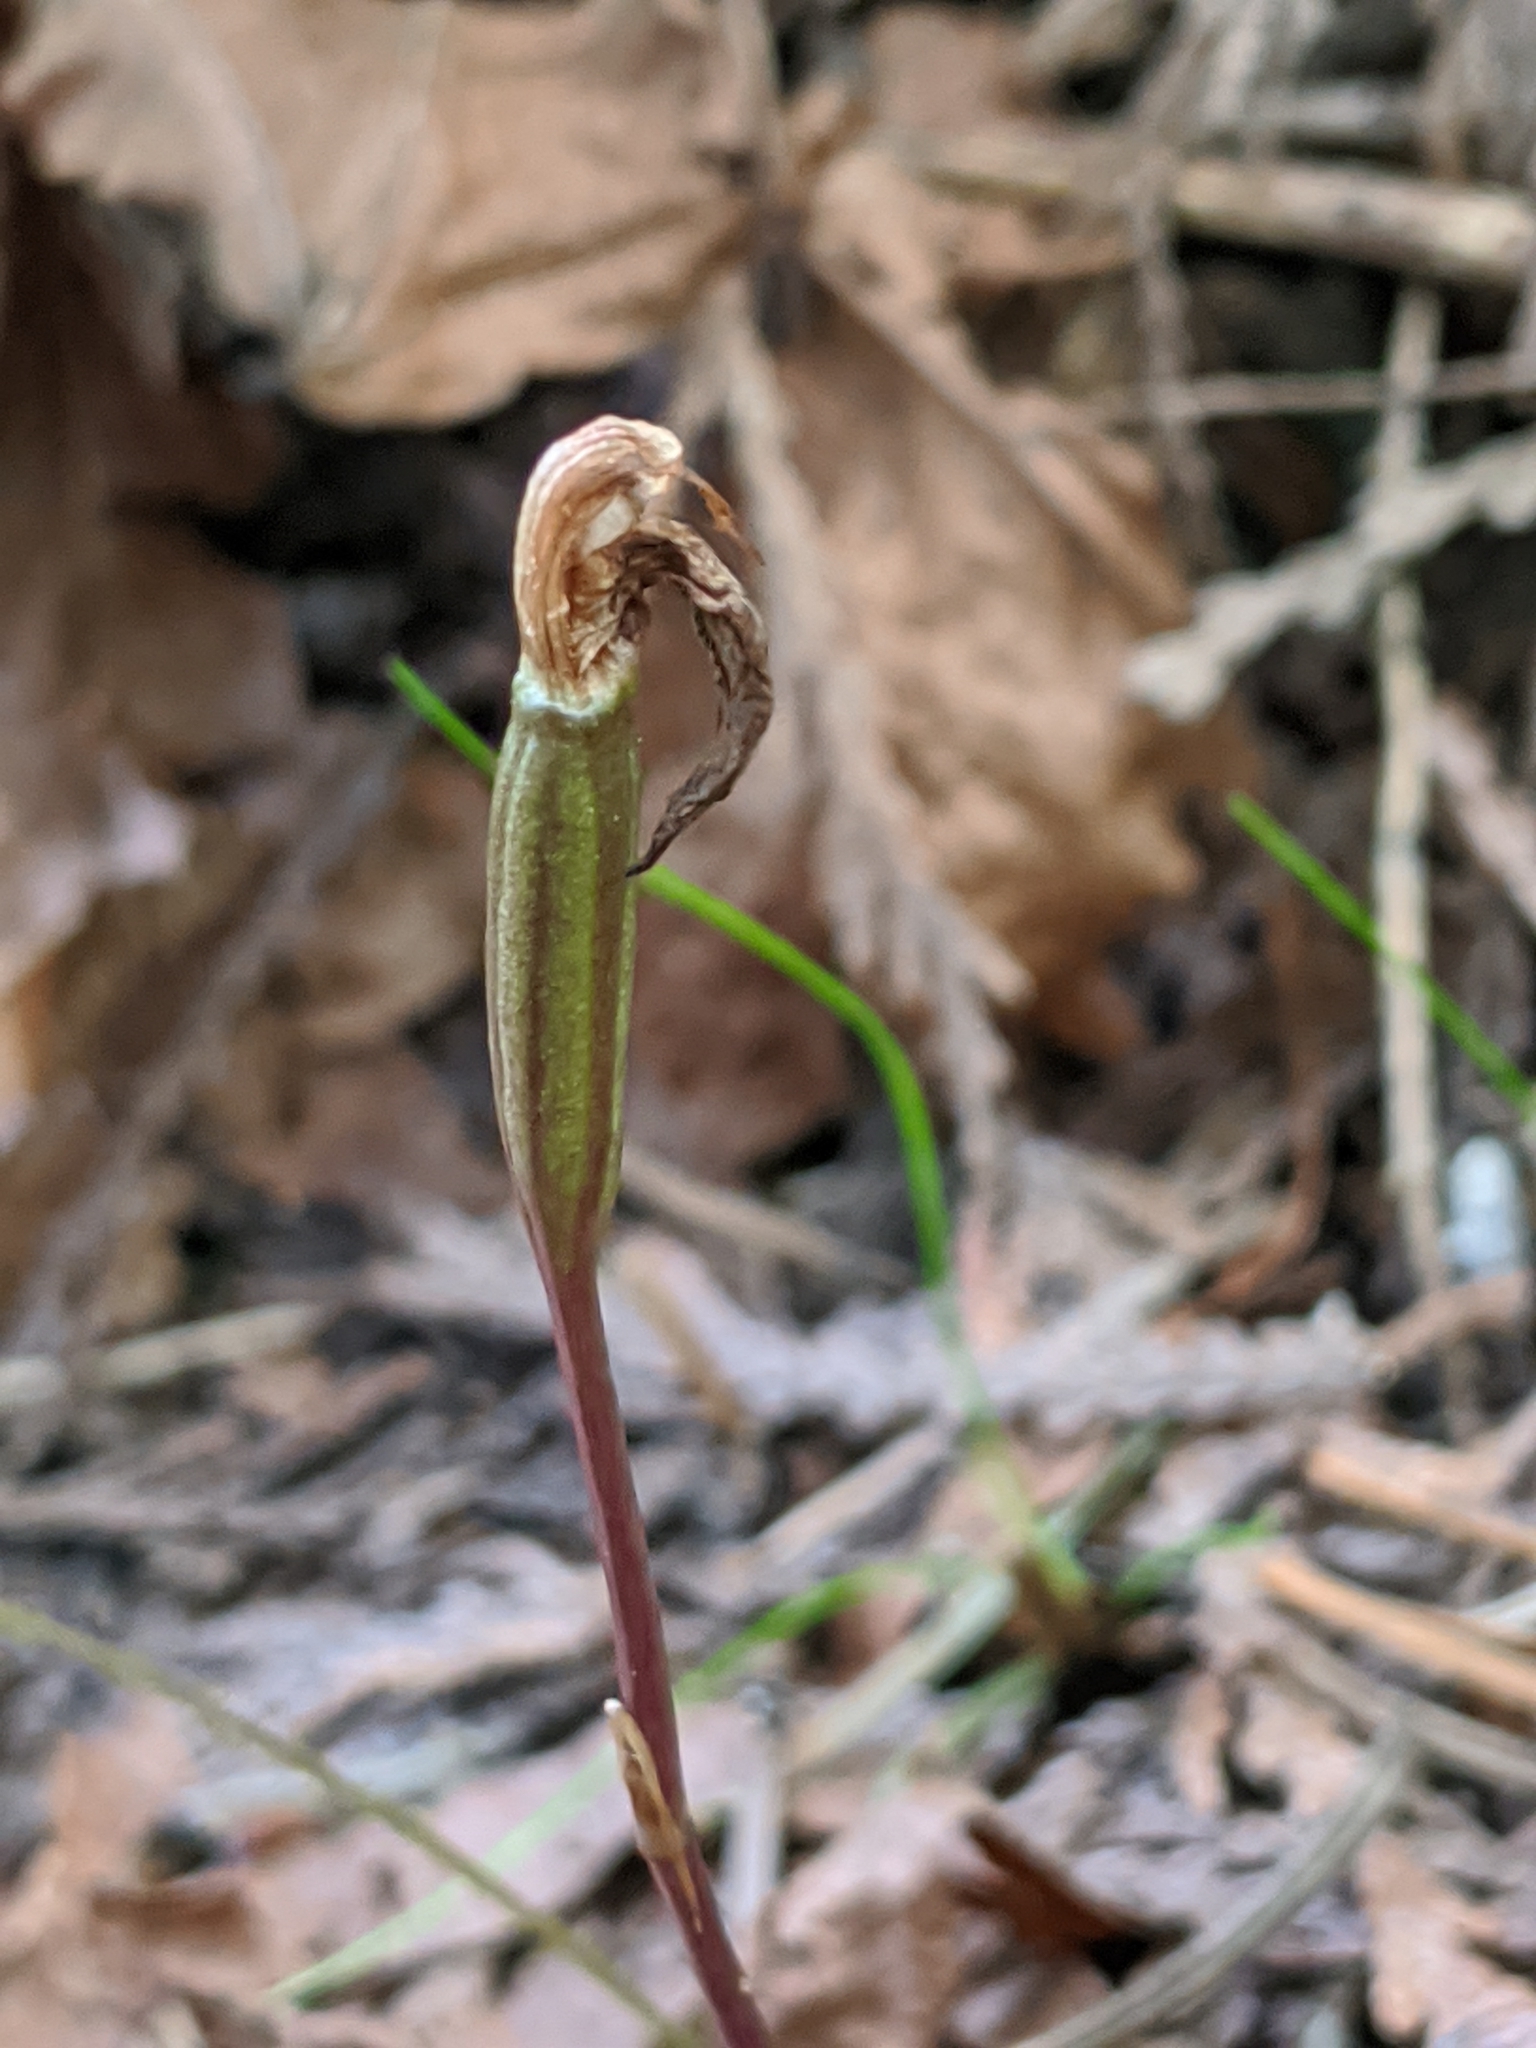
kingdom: Plantae
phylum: Tracheophyta
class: Liliopsida
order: Asparagales
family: Orchidaceae
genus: Calypso
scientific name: Calypso bulbosa
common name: Calypso
